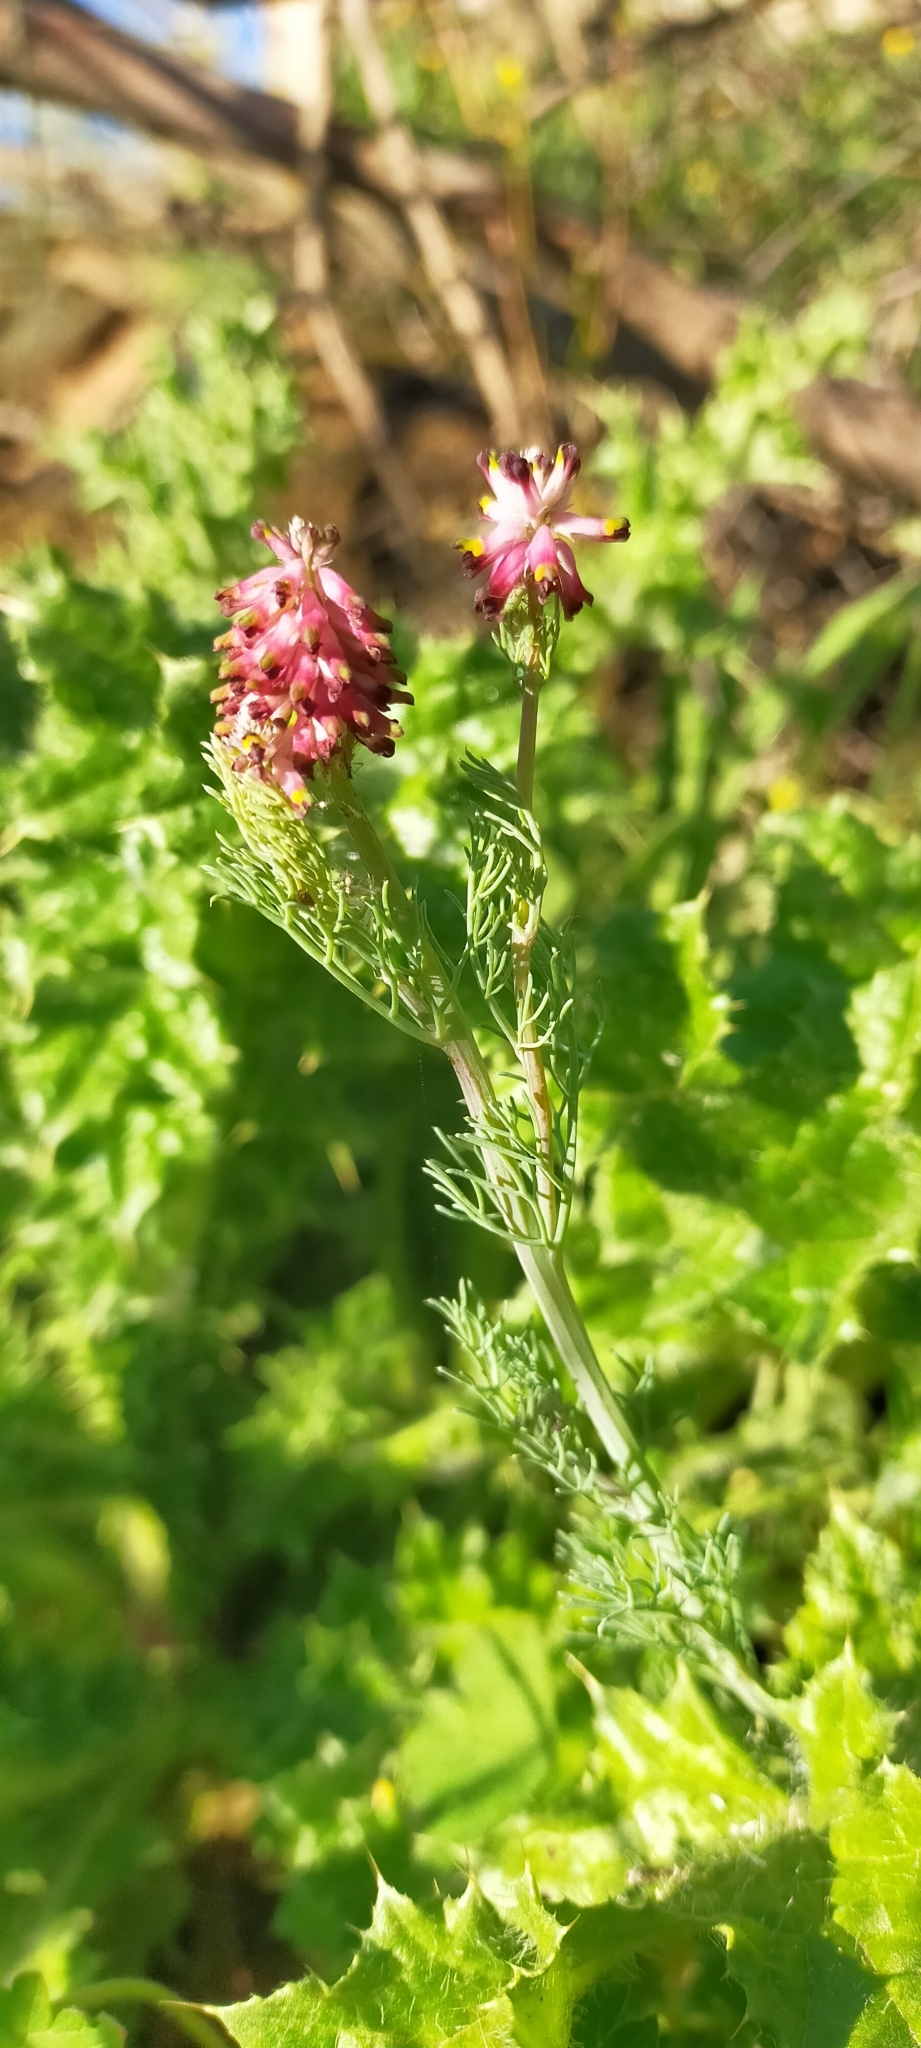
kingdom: Plantae
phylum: Tracheophyta
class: Magnoliopsida
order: Ranunculales
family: Papaveraceae
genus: Platycapnos
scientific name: Platycapnos spicata
